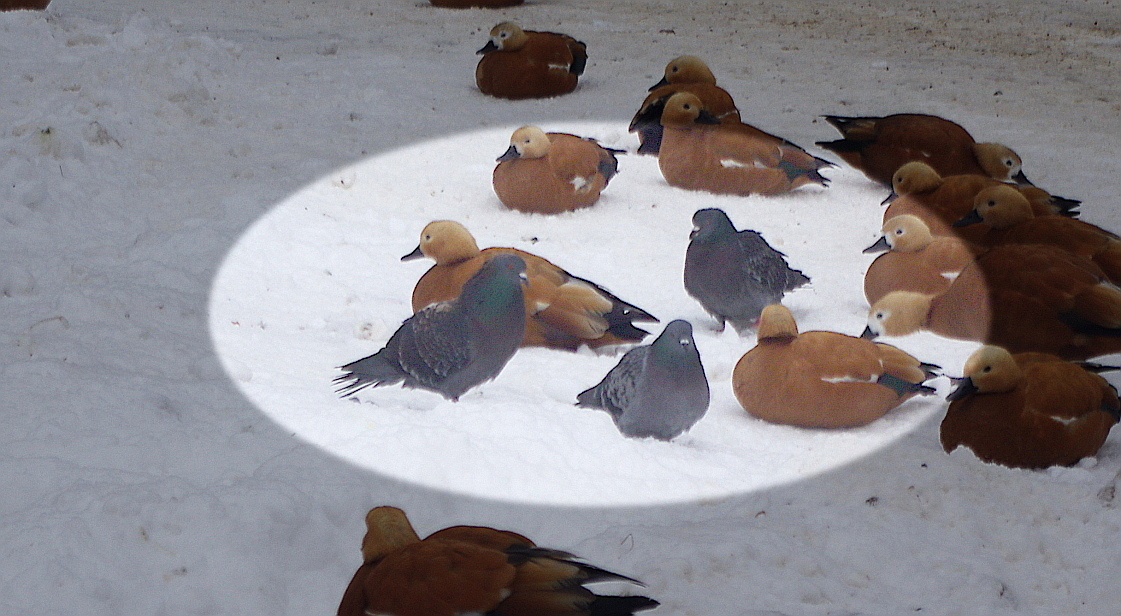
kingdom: Animalia
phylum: Chordata
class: Aves
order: Columbiformes
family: Columbidae
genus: Columba
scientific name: Columba livia
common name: Rock pigeon
